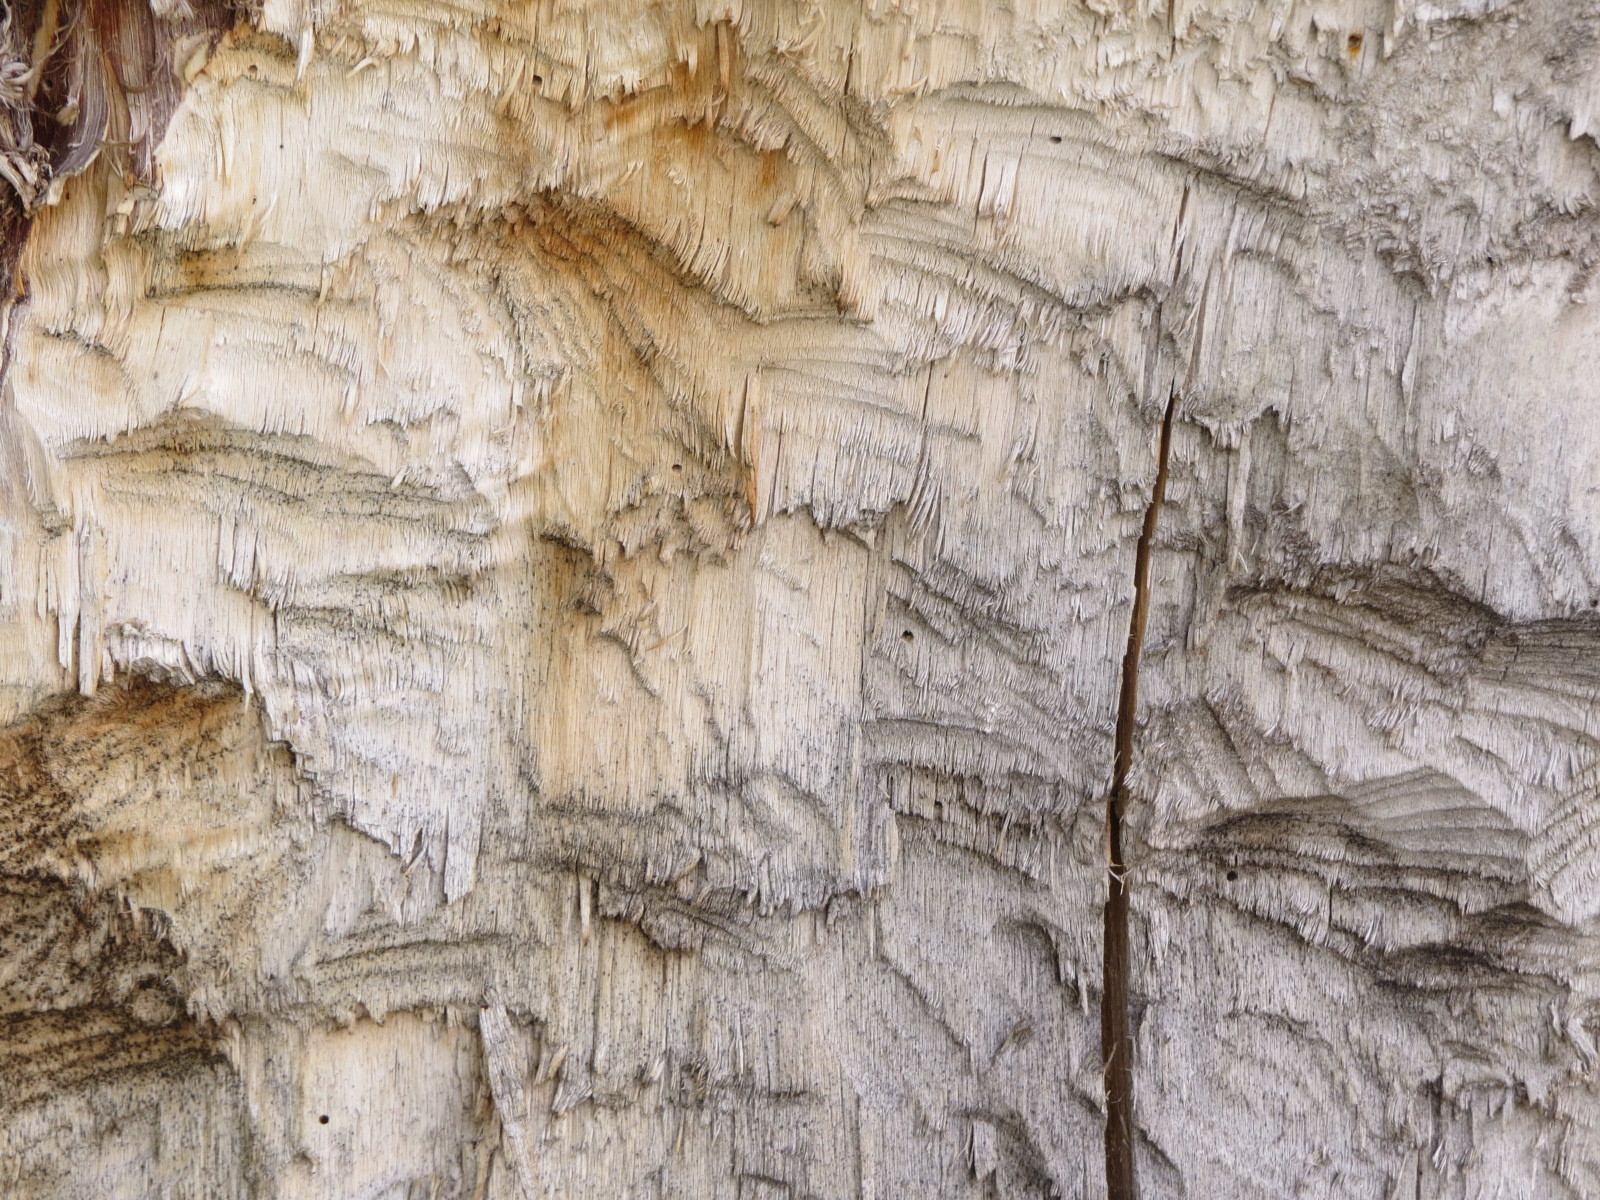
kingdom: Animalia
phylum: Chordata
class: Mammalia
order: Rodentia
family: Castoridae
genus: Castor
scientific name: Castor canadensis
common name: American beaver
